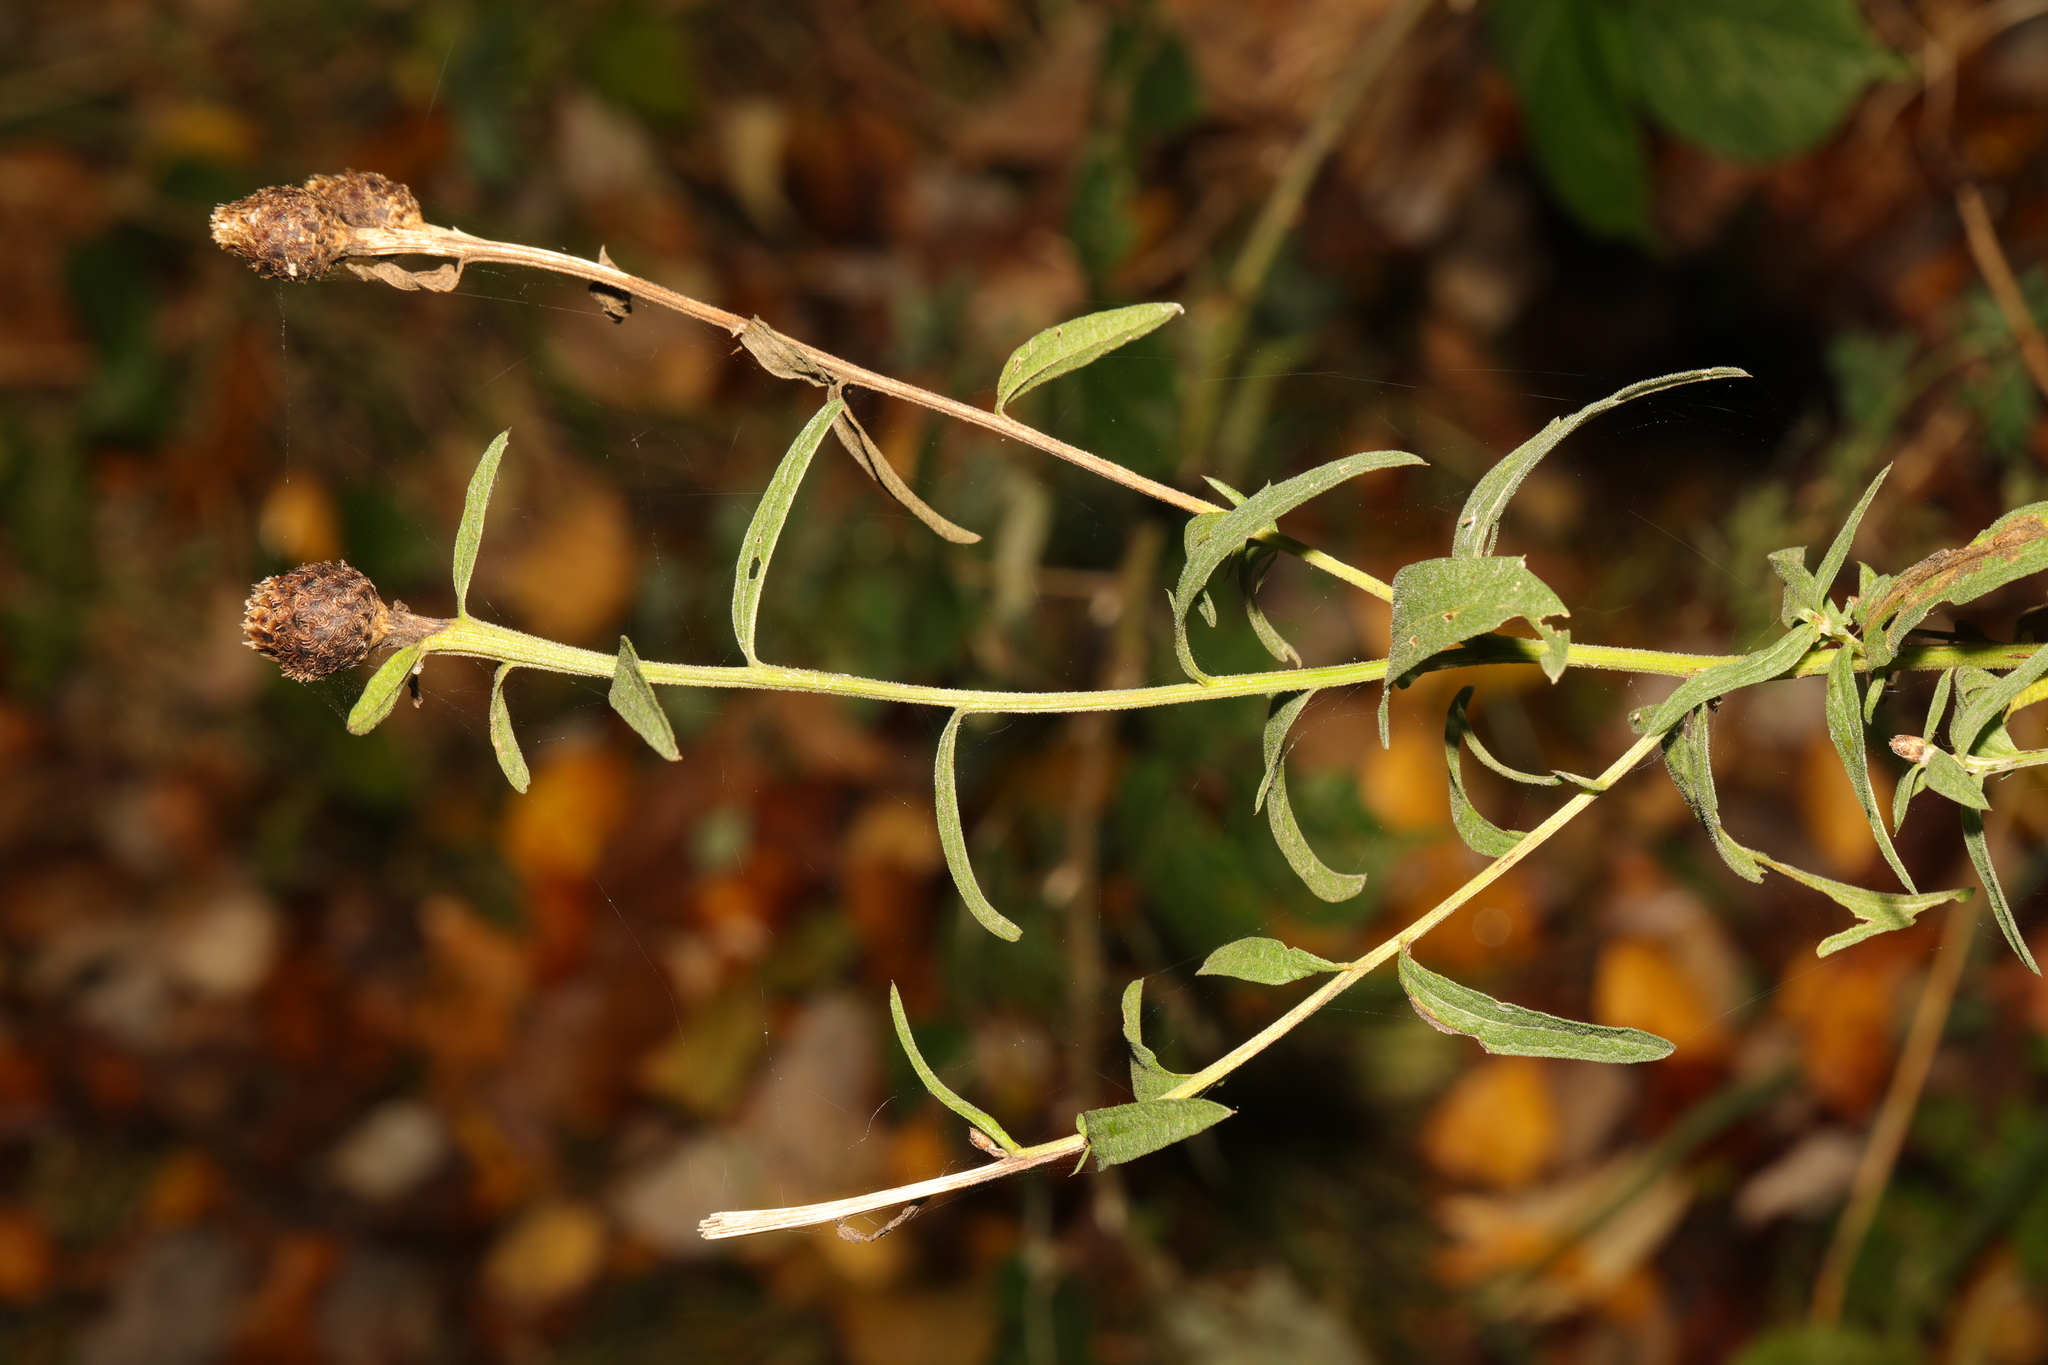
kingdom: Plantae
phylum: Tracheophyta
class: Magnoliopsida
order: Asterales
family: Asteraceae
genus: Centaurea
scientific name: Centaurea nigra
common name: Lesser knapweed
